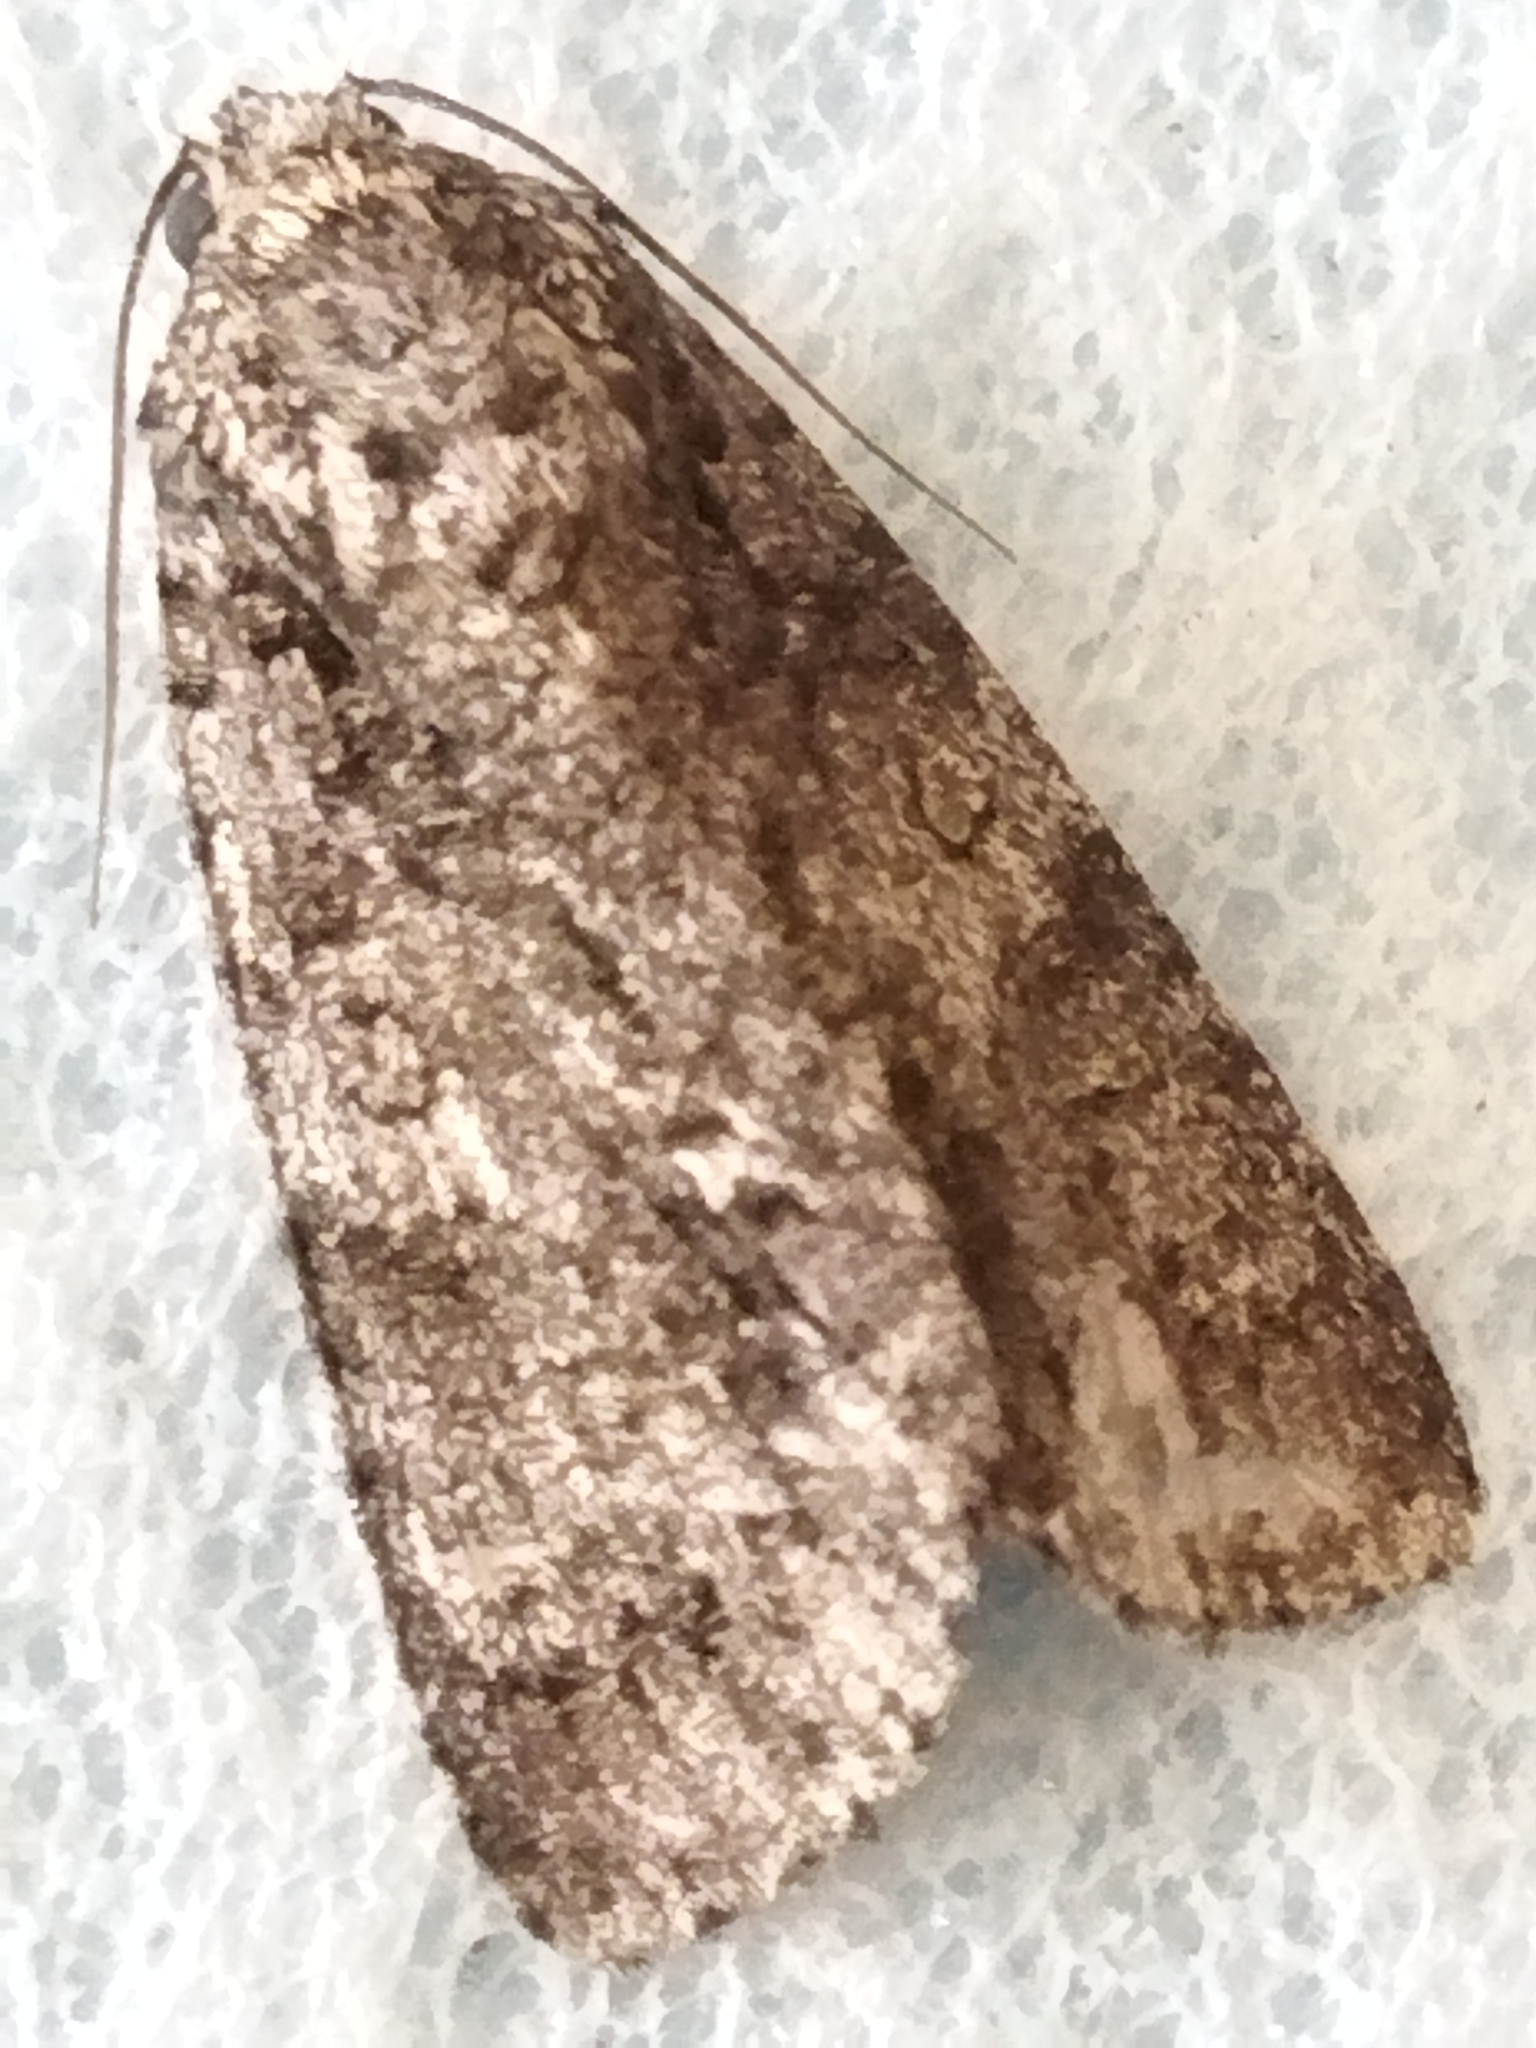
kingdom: Animalia
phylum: Arthropoda
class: Insecta
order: Lepidoptera
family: Noctuidae
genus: Acronicta
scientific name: Acronicta rumicis
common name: Knot grass
